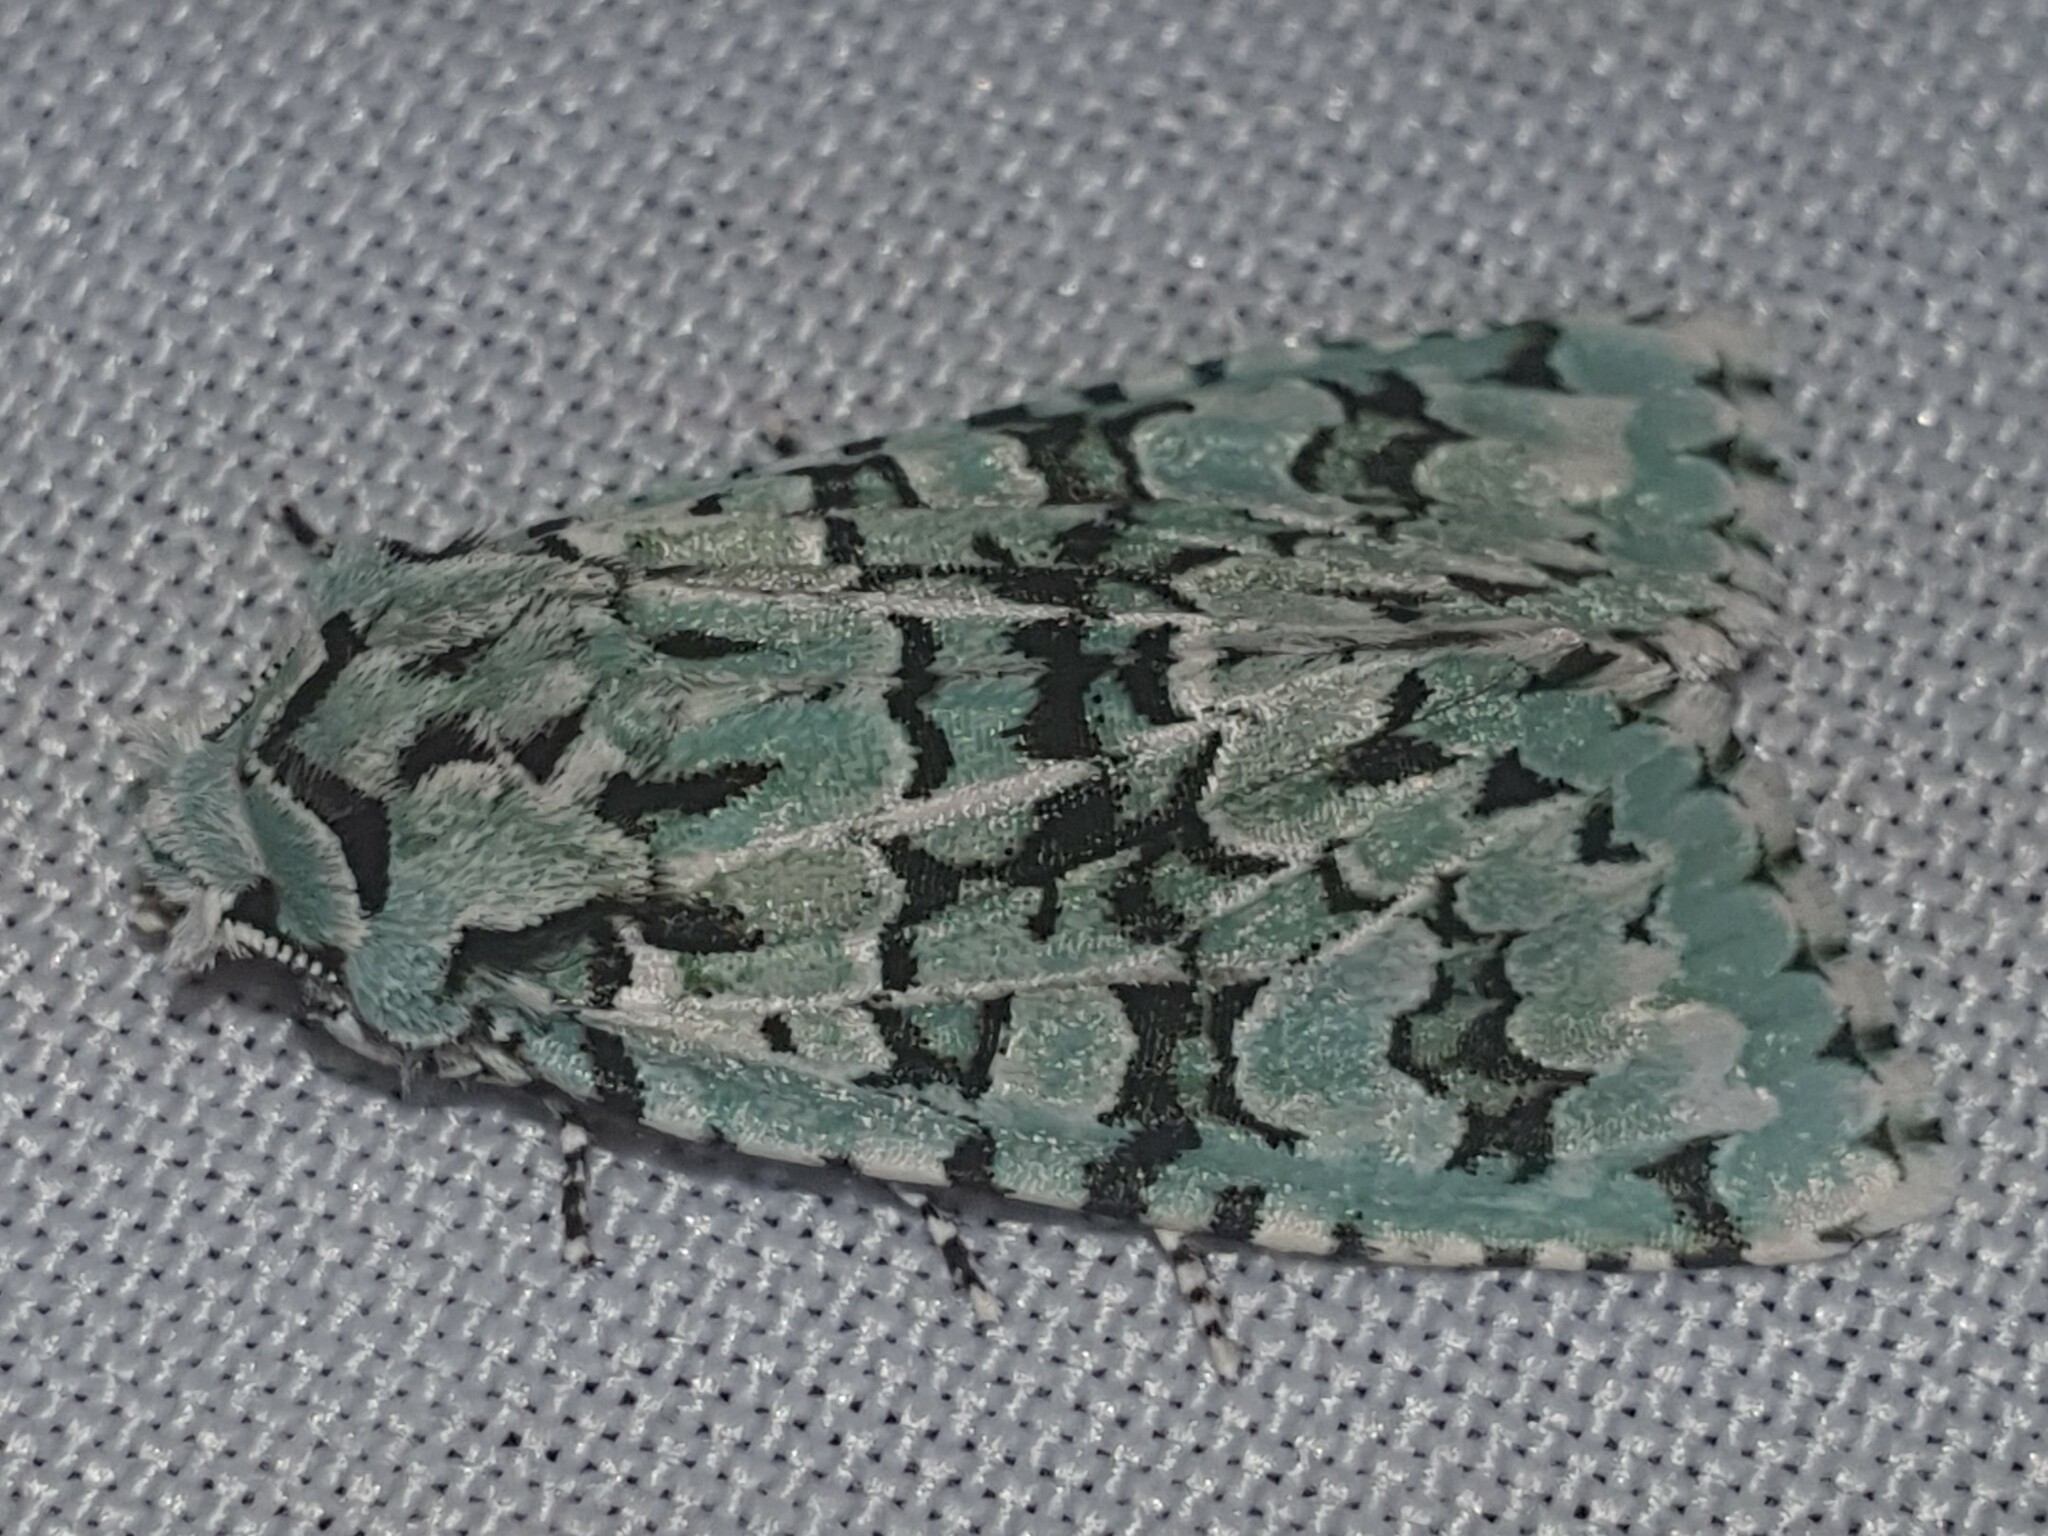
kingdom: Animalia
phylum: Arthropoda
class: Insecta
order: Lepidoptera
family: Noctuidae
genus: Griposia
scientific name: Griposia aprilina
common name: Merveille du jour
